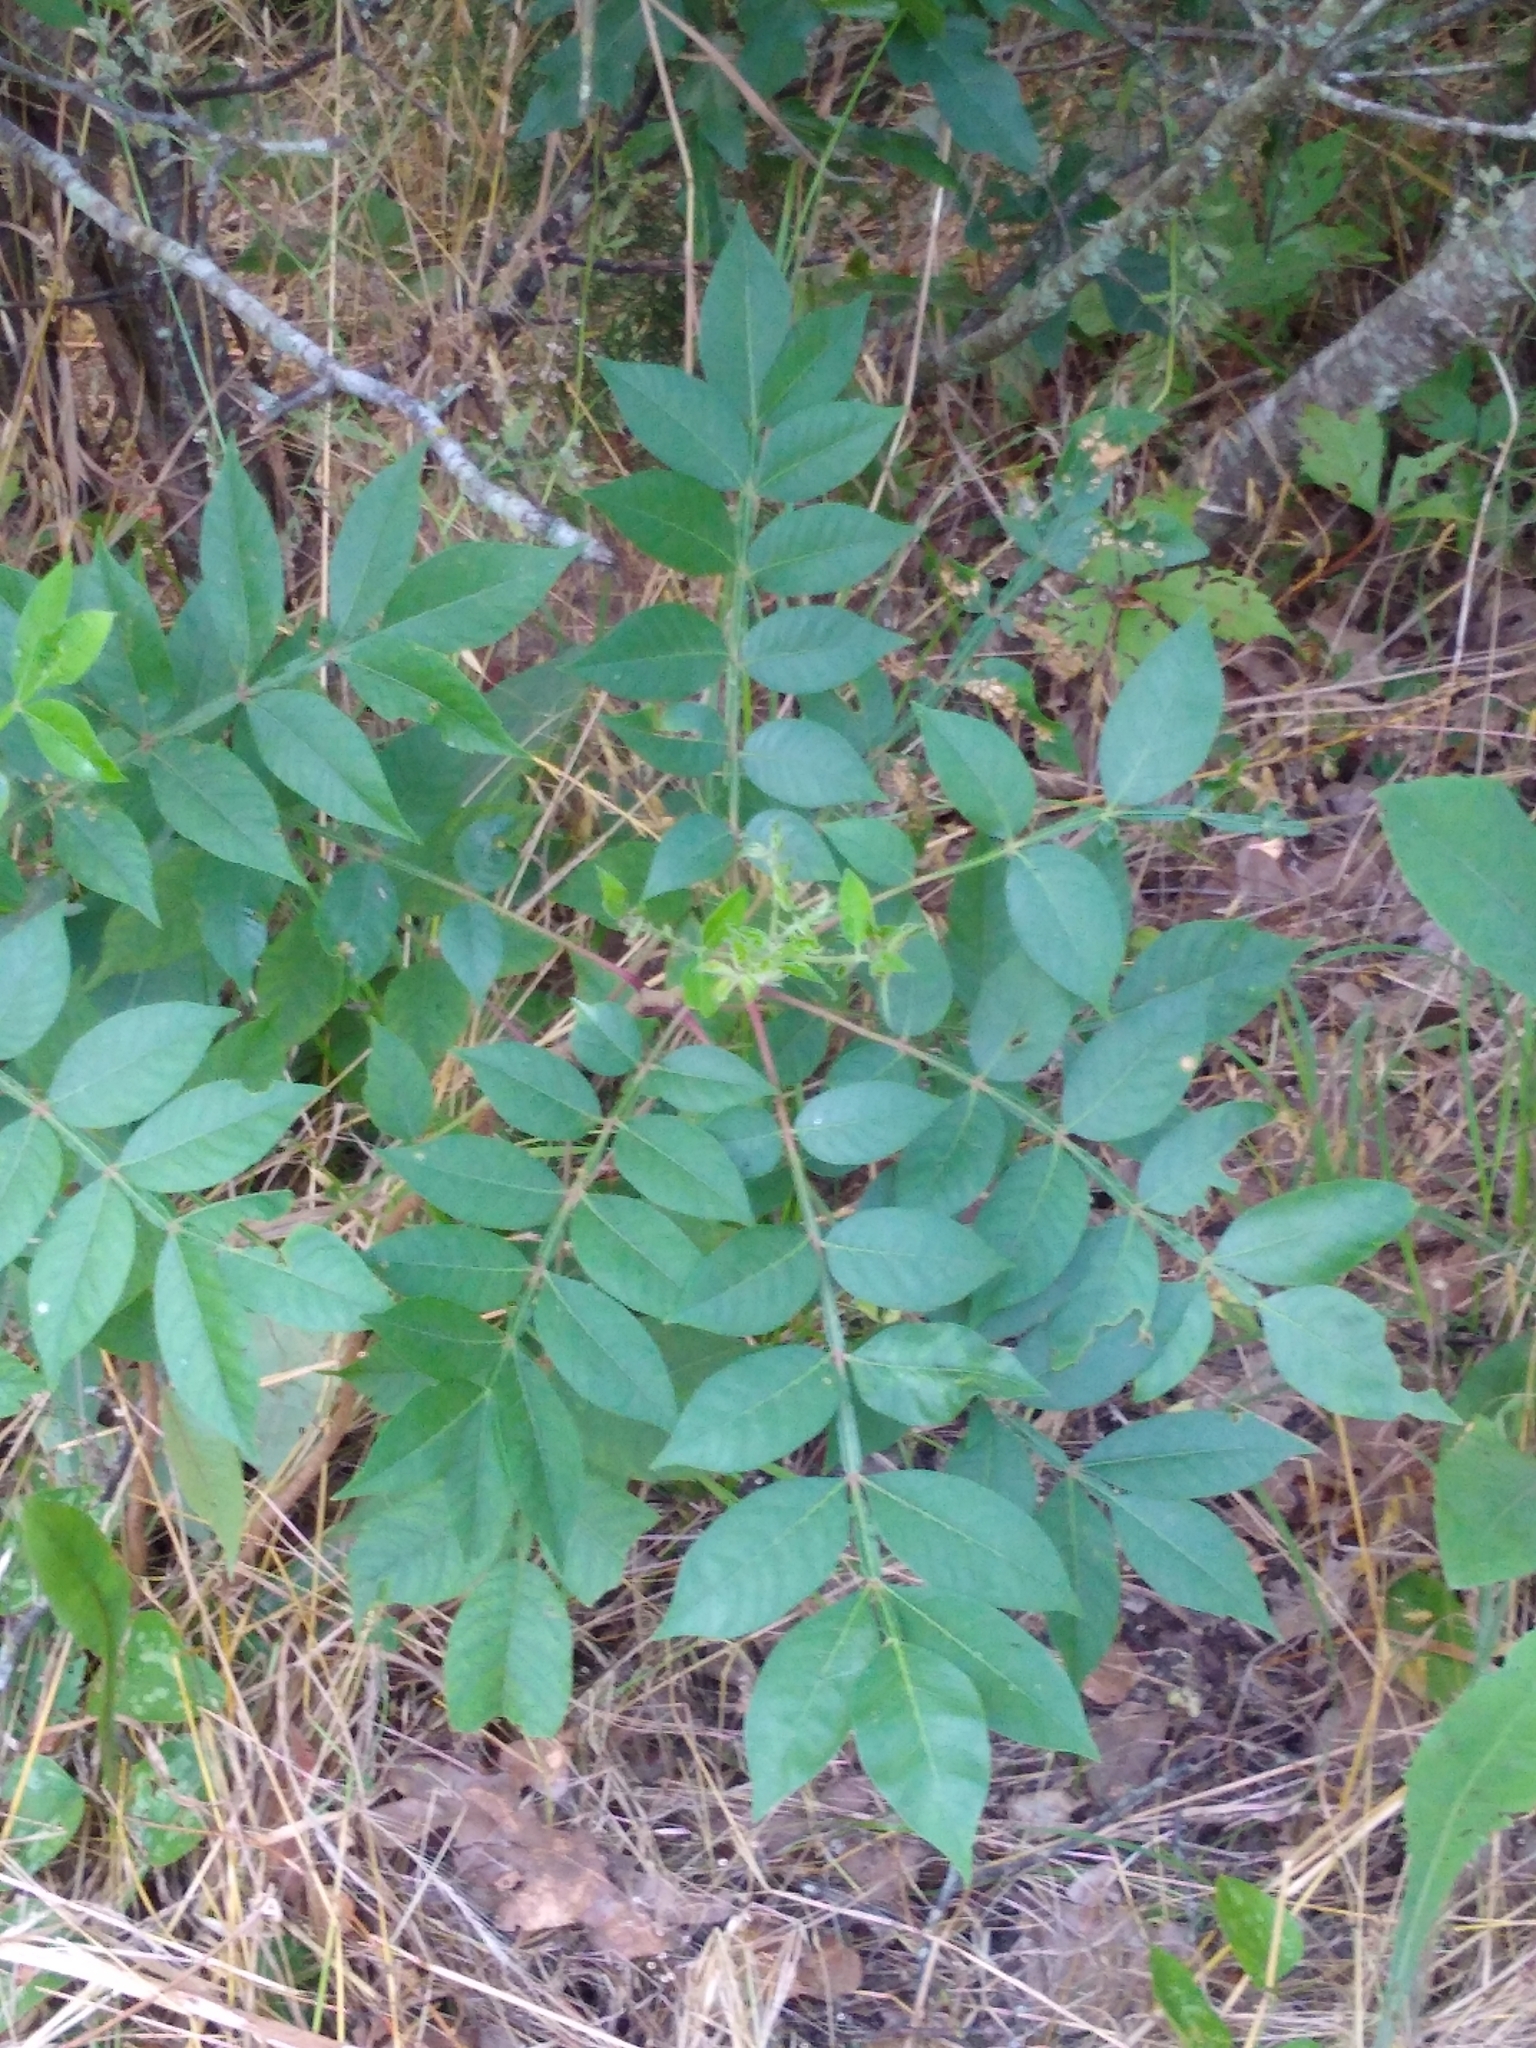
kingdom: Plantae
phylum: Tracheophyta
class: Magnoliopsida
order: Sapindales
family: Anacardiaceae
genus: Rhus
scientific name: Rhus copallina
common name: Shining sumac
